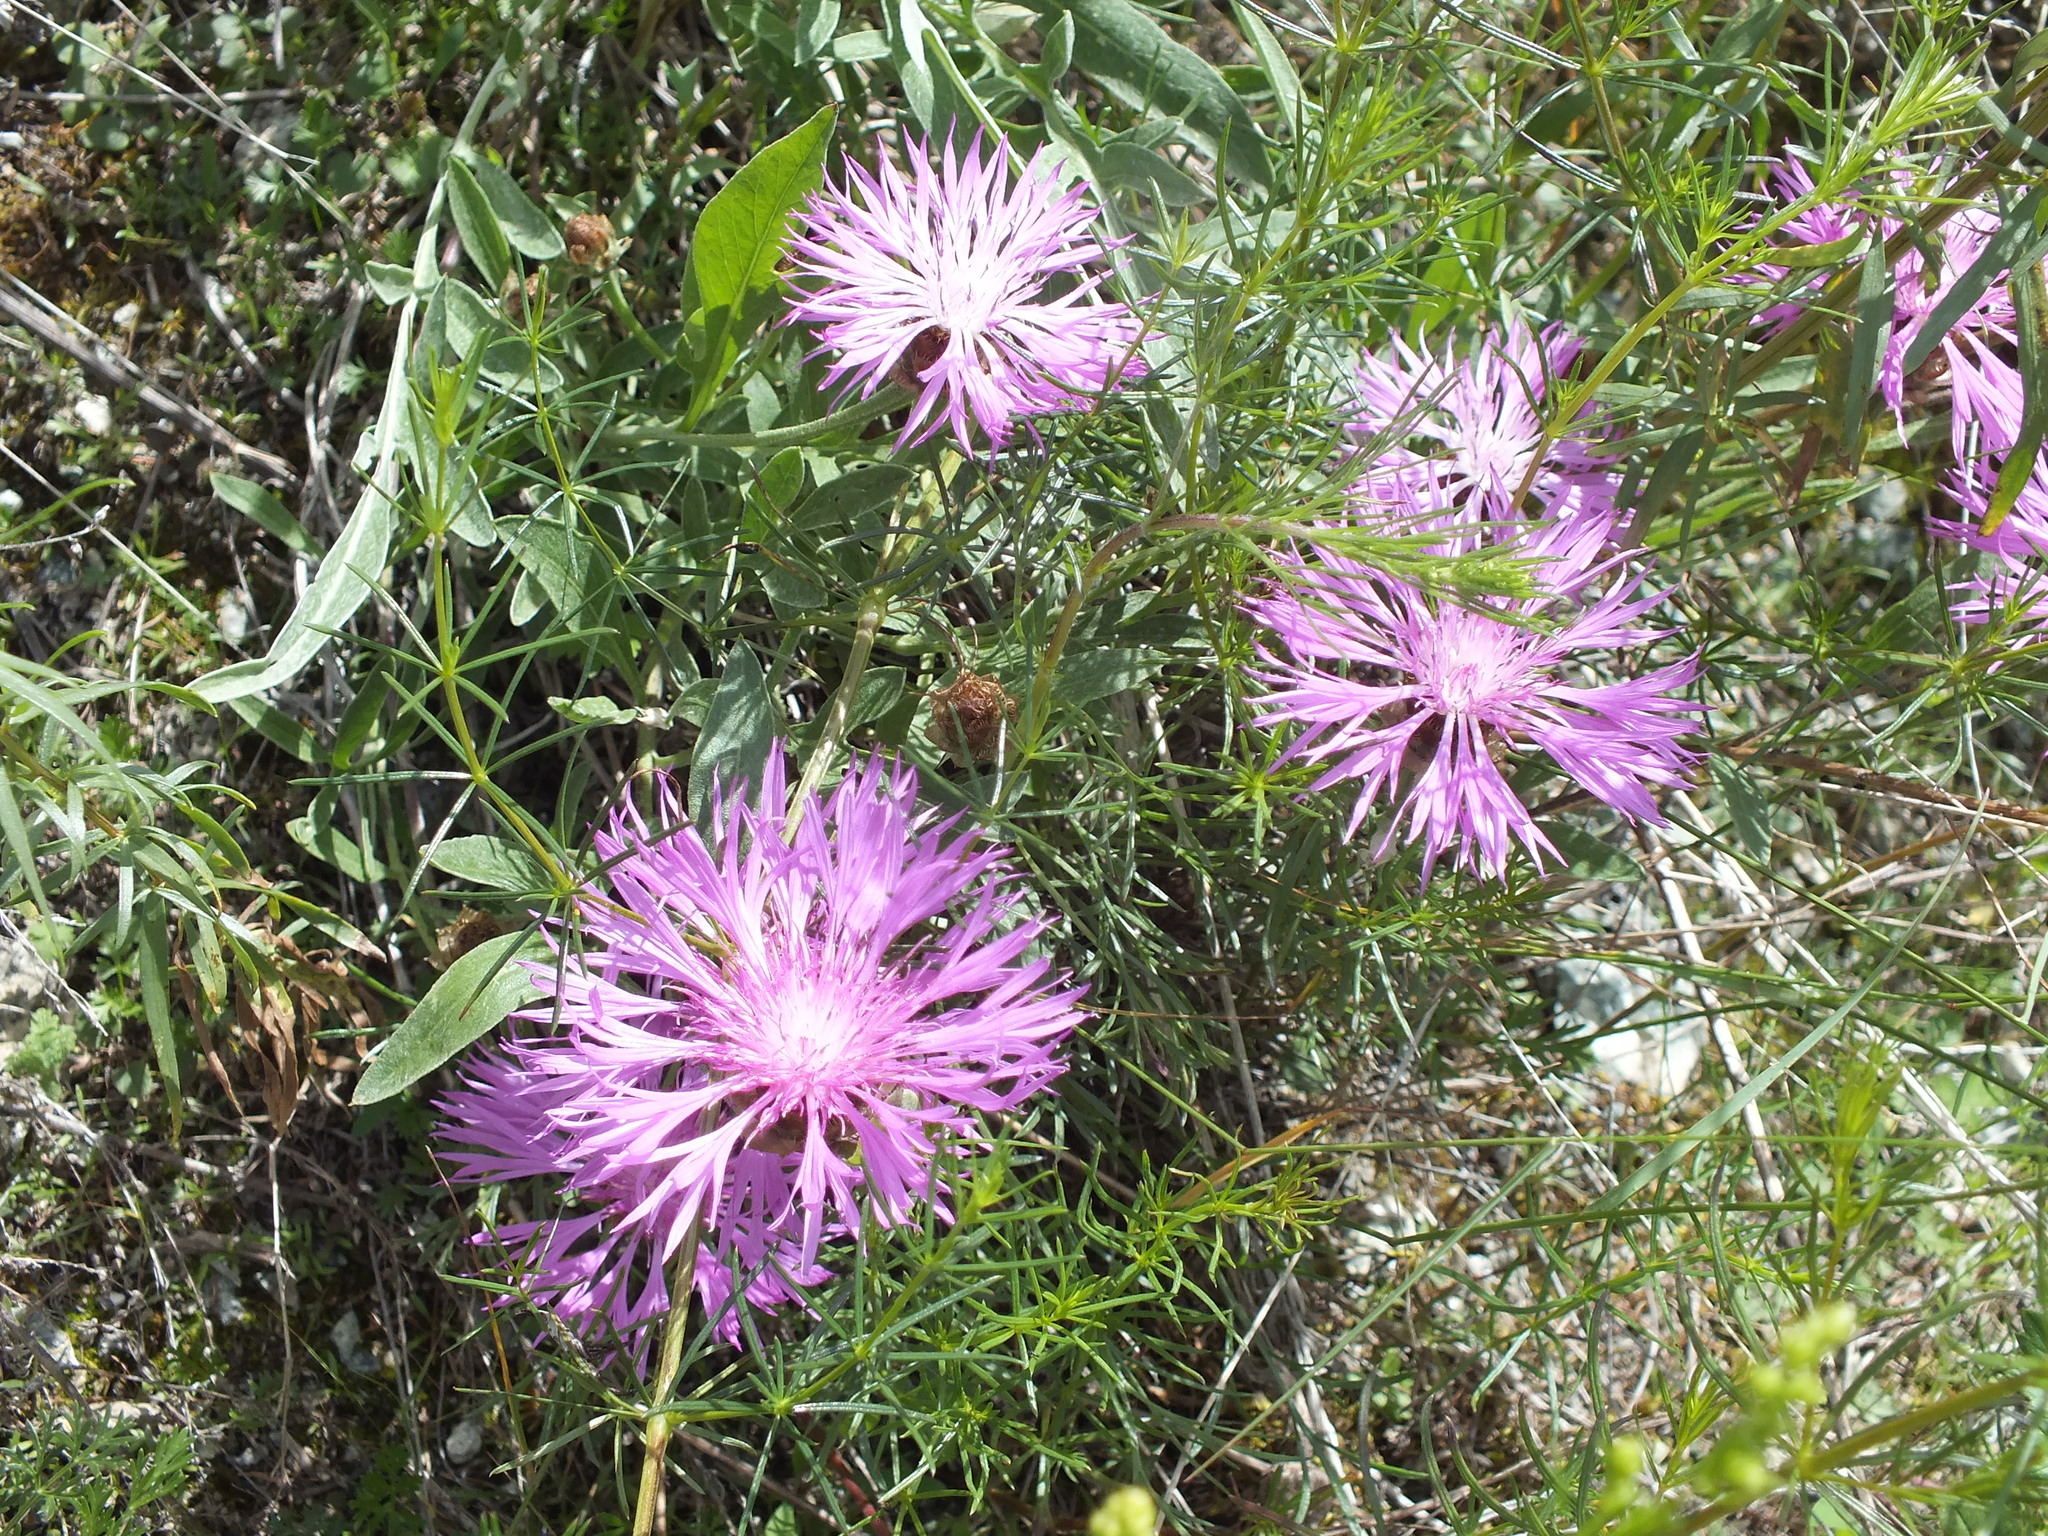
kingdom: Plantae
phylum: Tracheophyta
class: Magnoliopsida
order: Asterales
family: Asteraceae
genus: Psephellus
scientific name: Psephellus sibiricus
